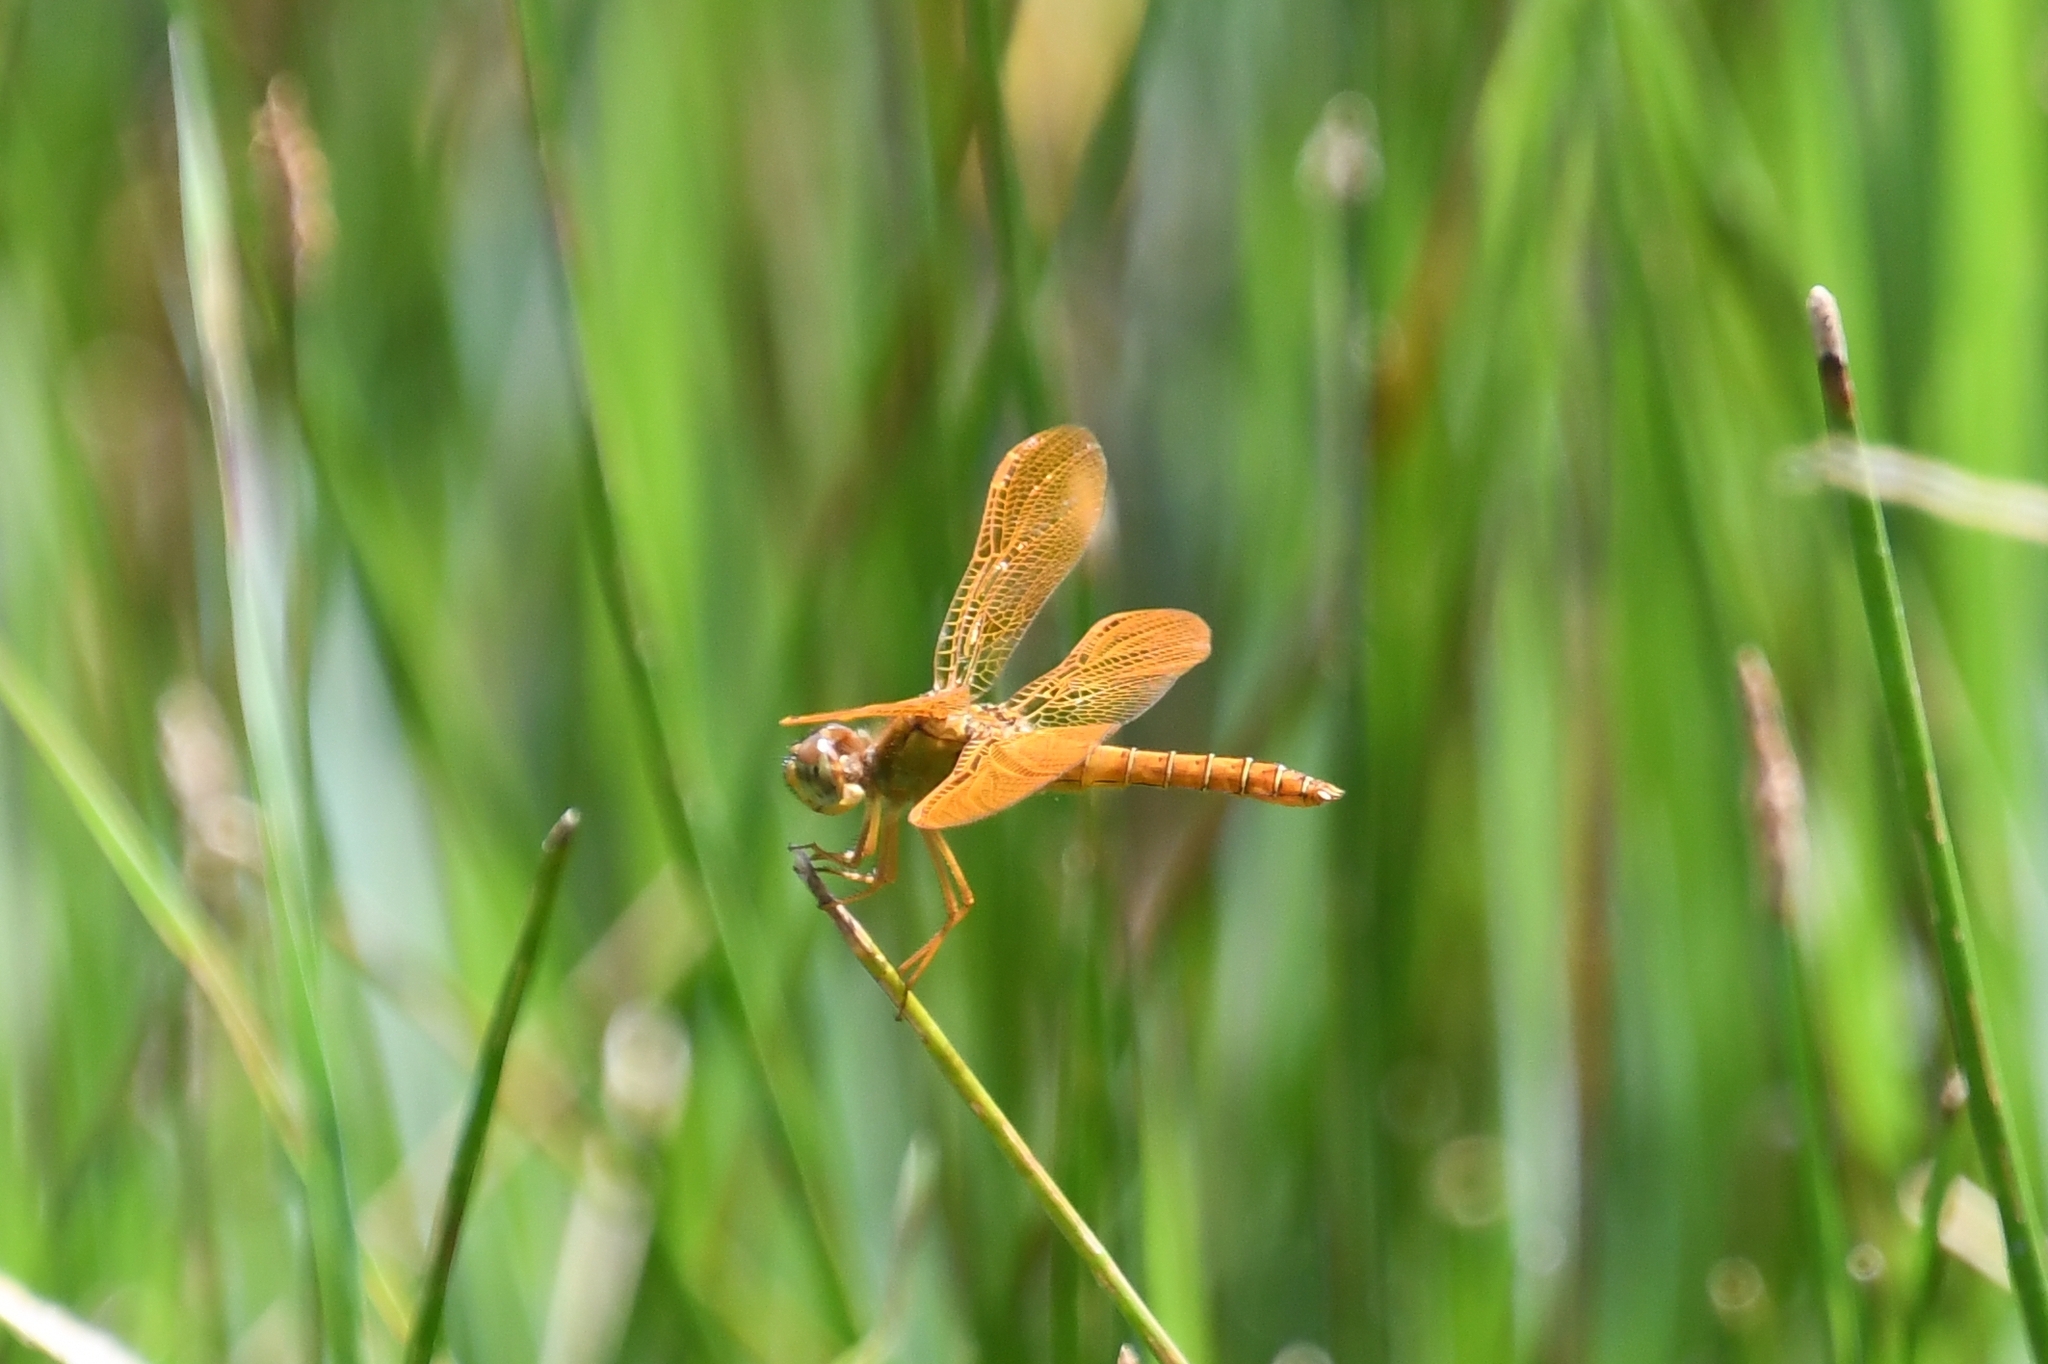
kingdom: Animalia
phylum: Arthropoda
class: Insecta
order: Odonata
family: Libellulidae
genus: Perithemis
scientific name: Perithemis intensa
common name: Mexican amberwing
